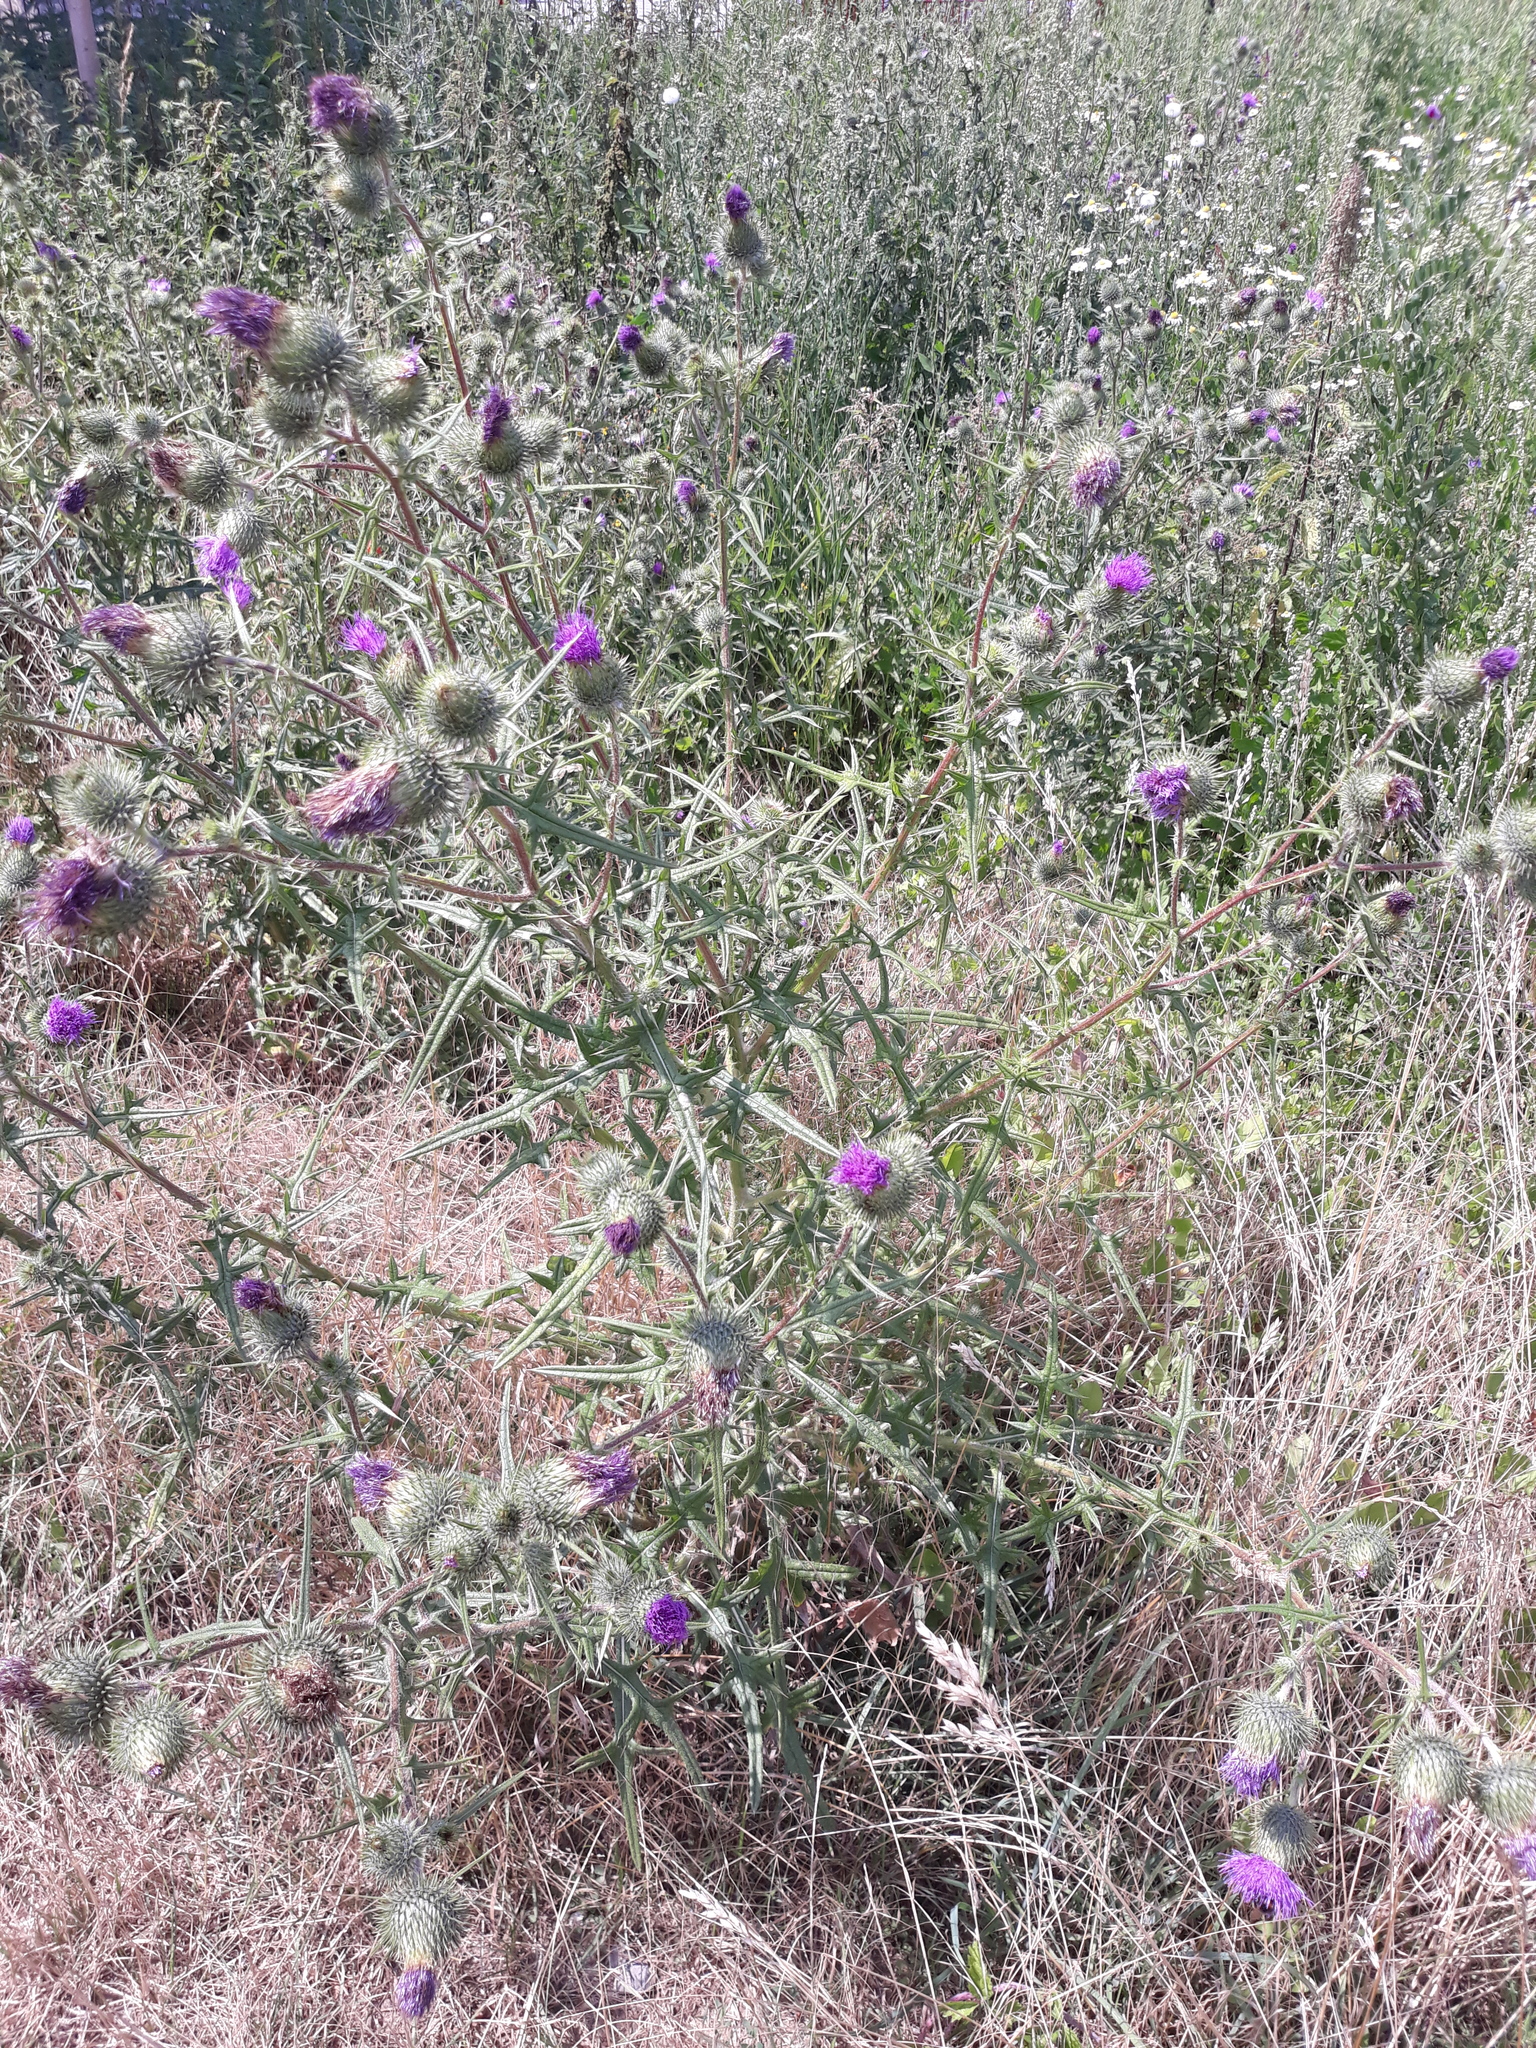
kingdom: Plantae
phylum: Tracheophyta
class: Magnoliopsida
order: Asterales
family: Asteraceae
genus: Cirsium
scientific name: Cirsium vulgare
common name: Bull thistle
